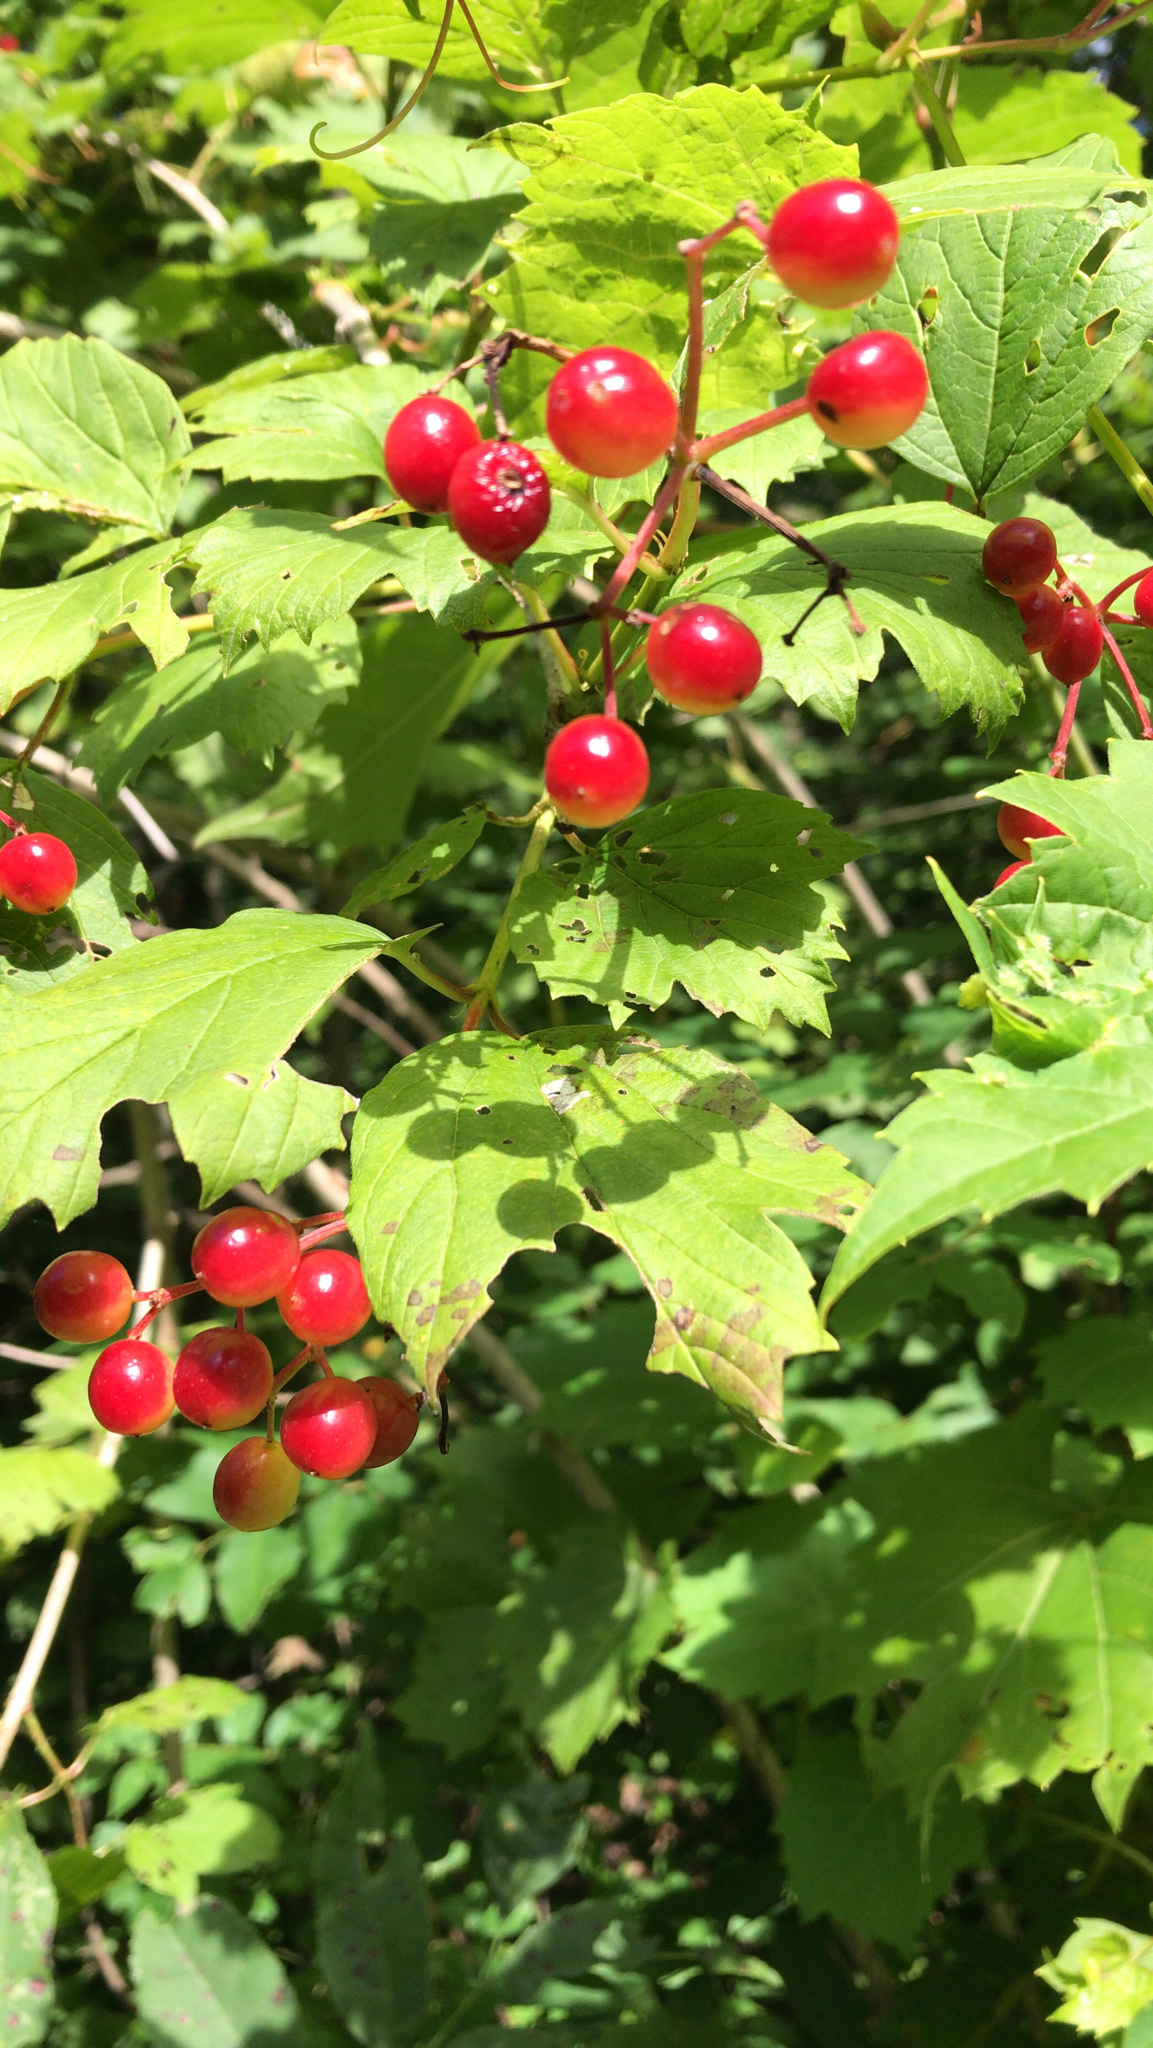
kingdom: Plantae
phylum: Tracheophyta
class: Magnoliopsida
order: Dipsacales
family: Viburnaceae
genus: Viburnum
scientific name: Viburnum opulus
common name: Guelder-rose
